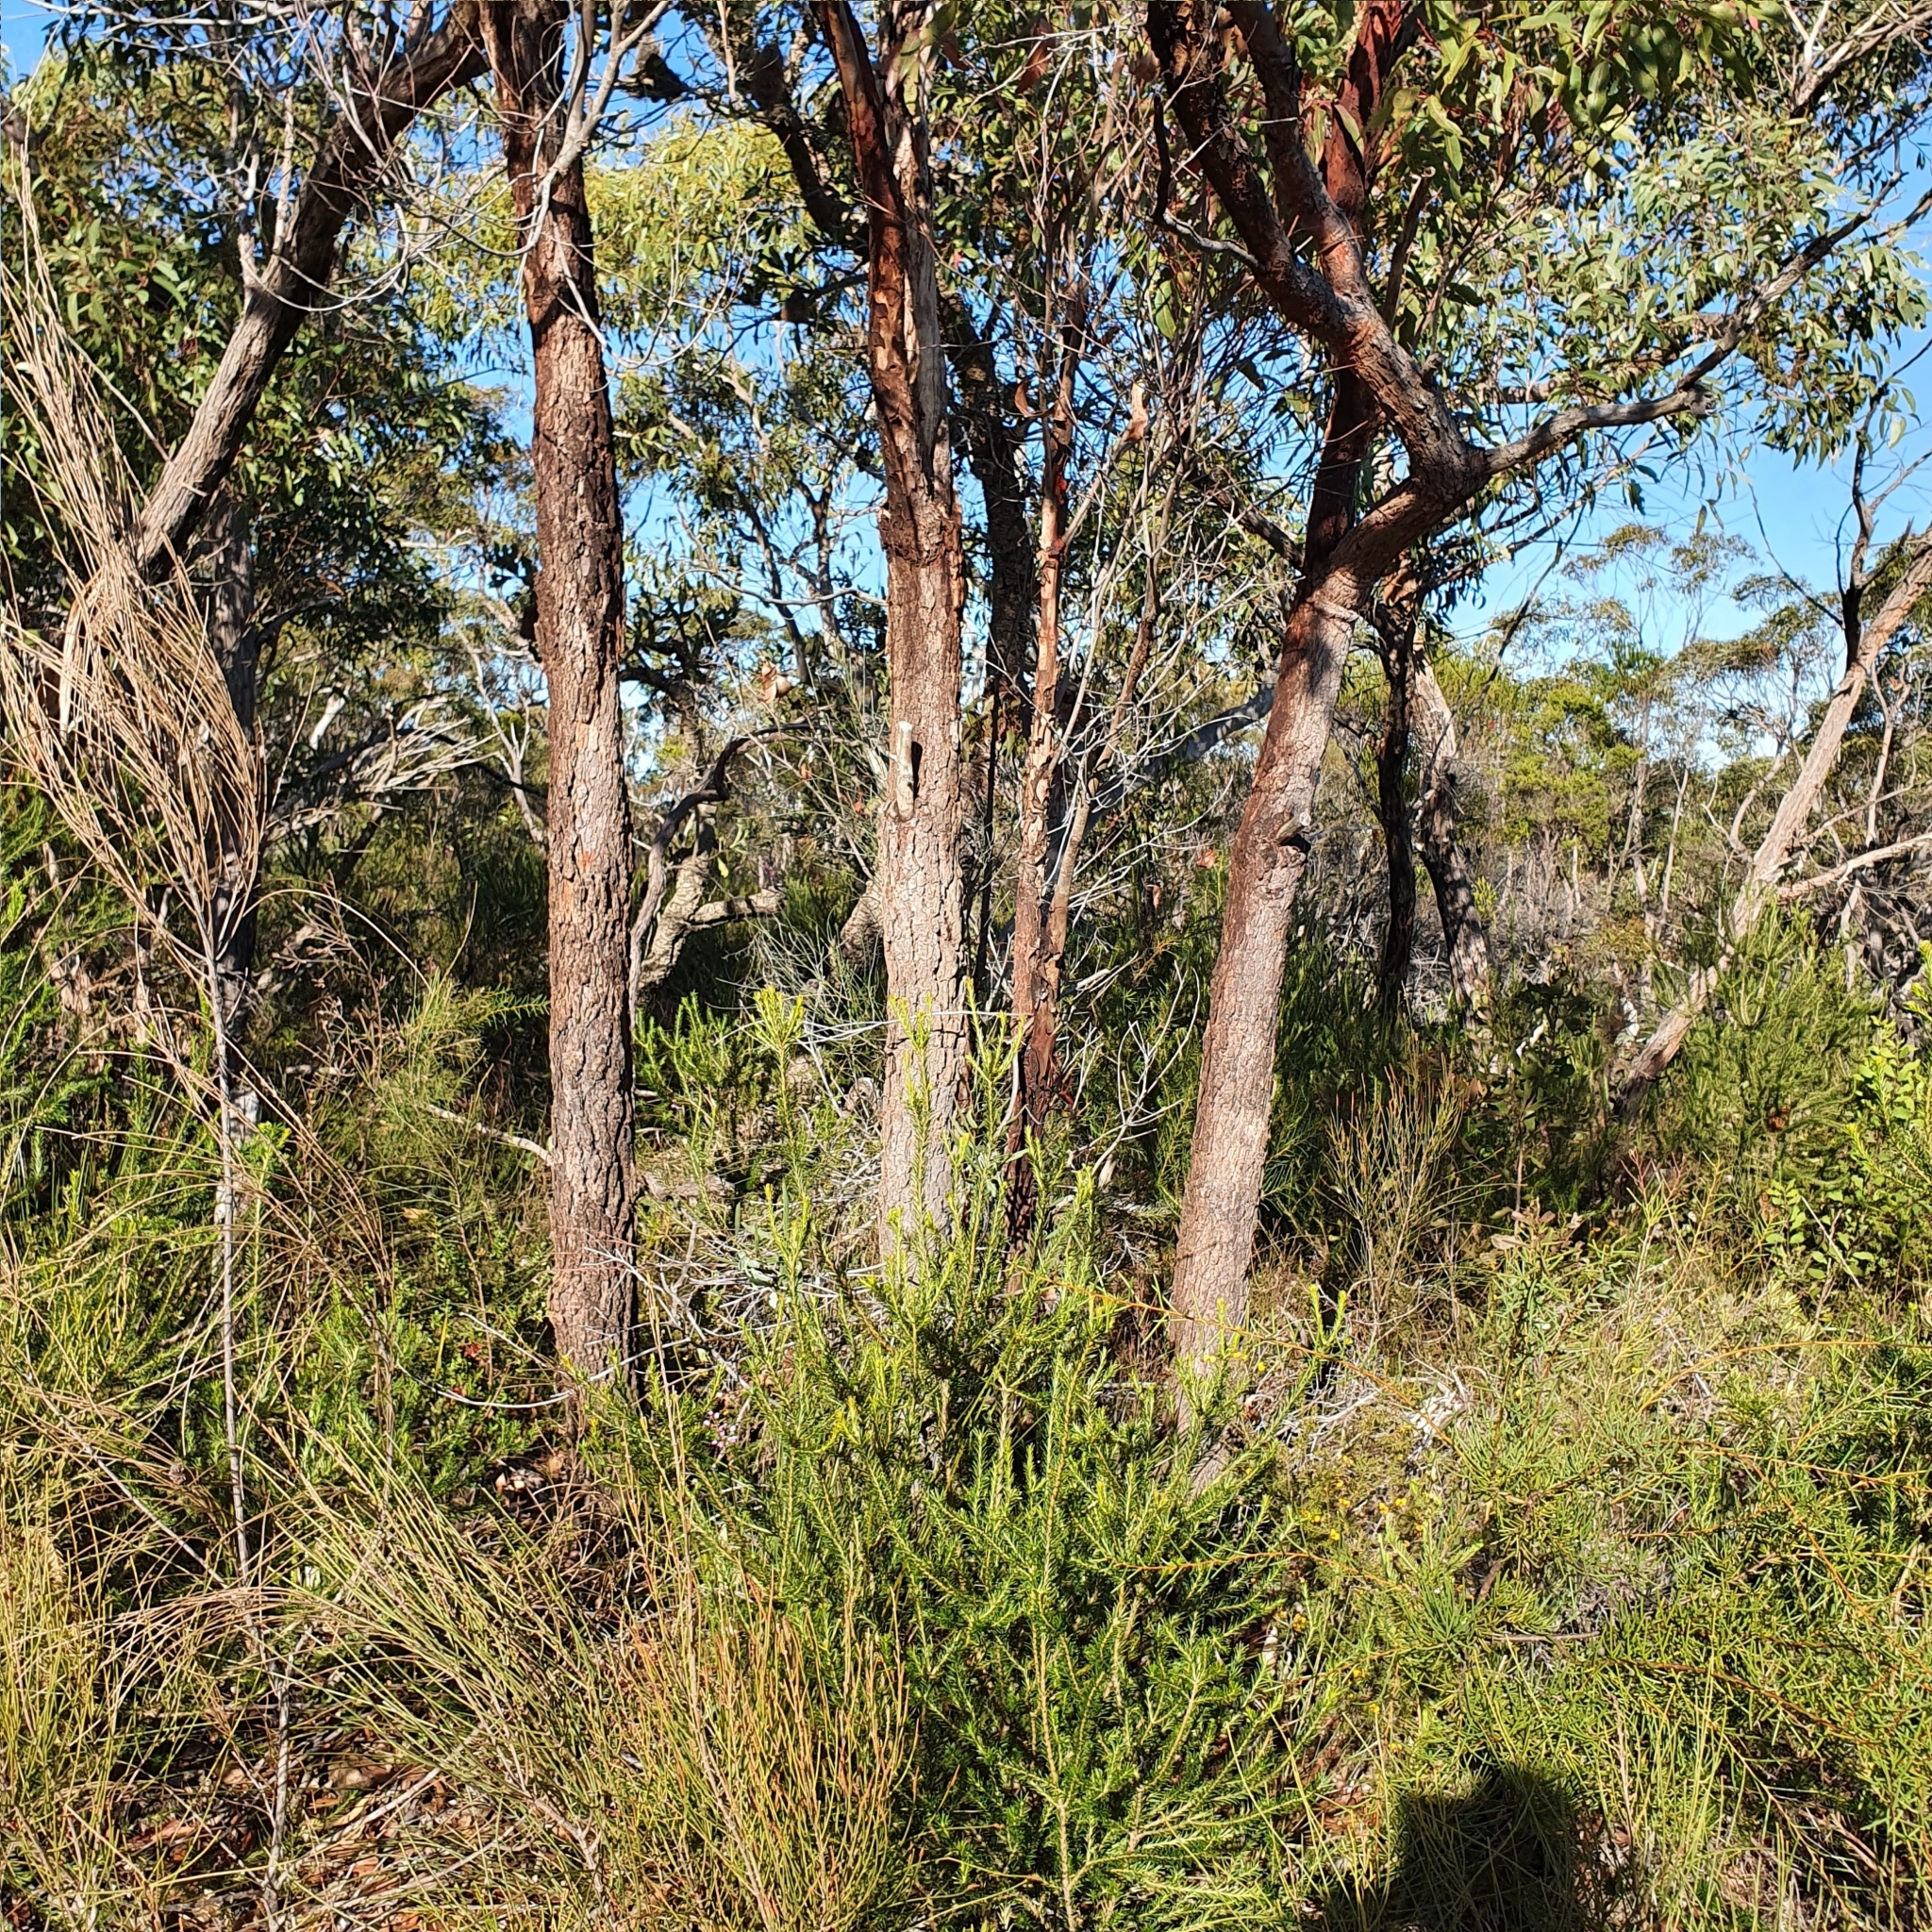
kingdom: Plantae
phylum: Tracheophyta
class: Magnoliopsida
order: Myrtales
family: Myrtaceae
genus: Corymbia
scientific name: Corymbia gummifera
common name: Red bloodwood
